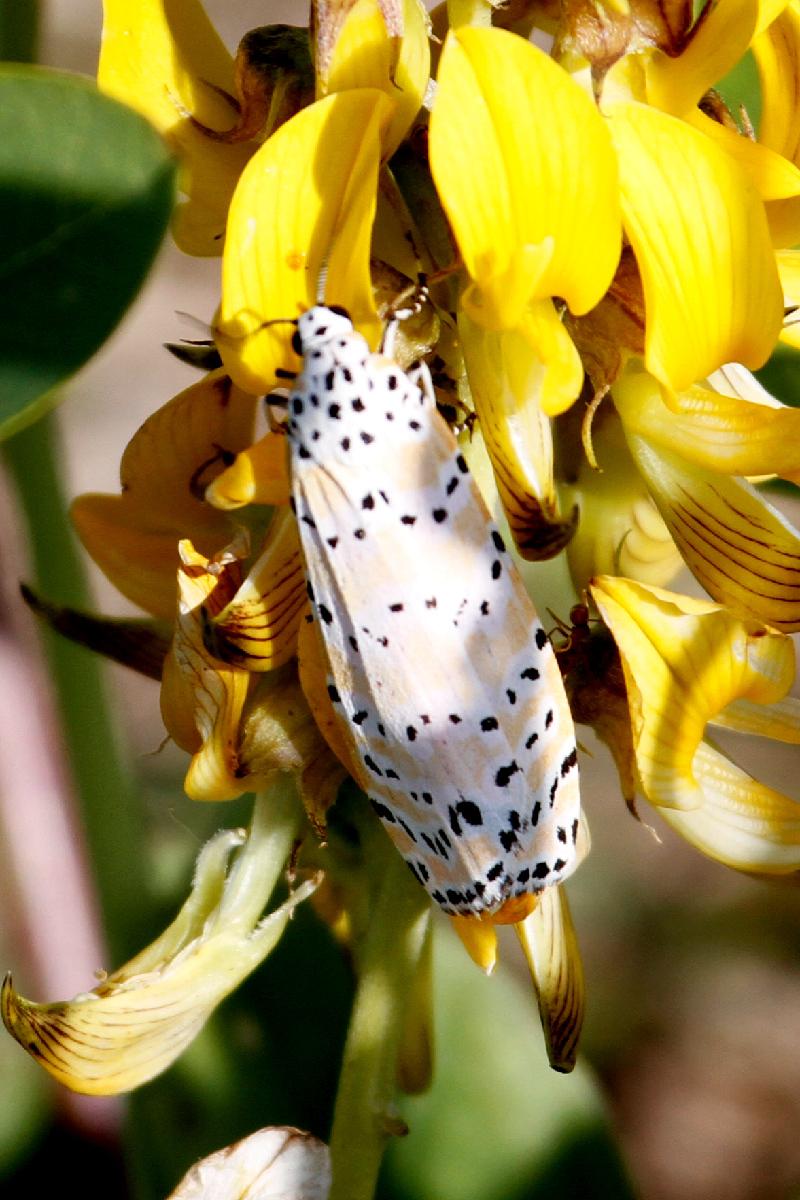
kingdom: Animalia
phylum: Arthropoda
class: Insecta
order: Lepidoptera
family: Erebidae
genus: Utetheisa
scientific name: Utetheisa ornatrix
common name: Beautiful utetheisa
